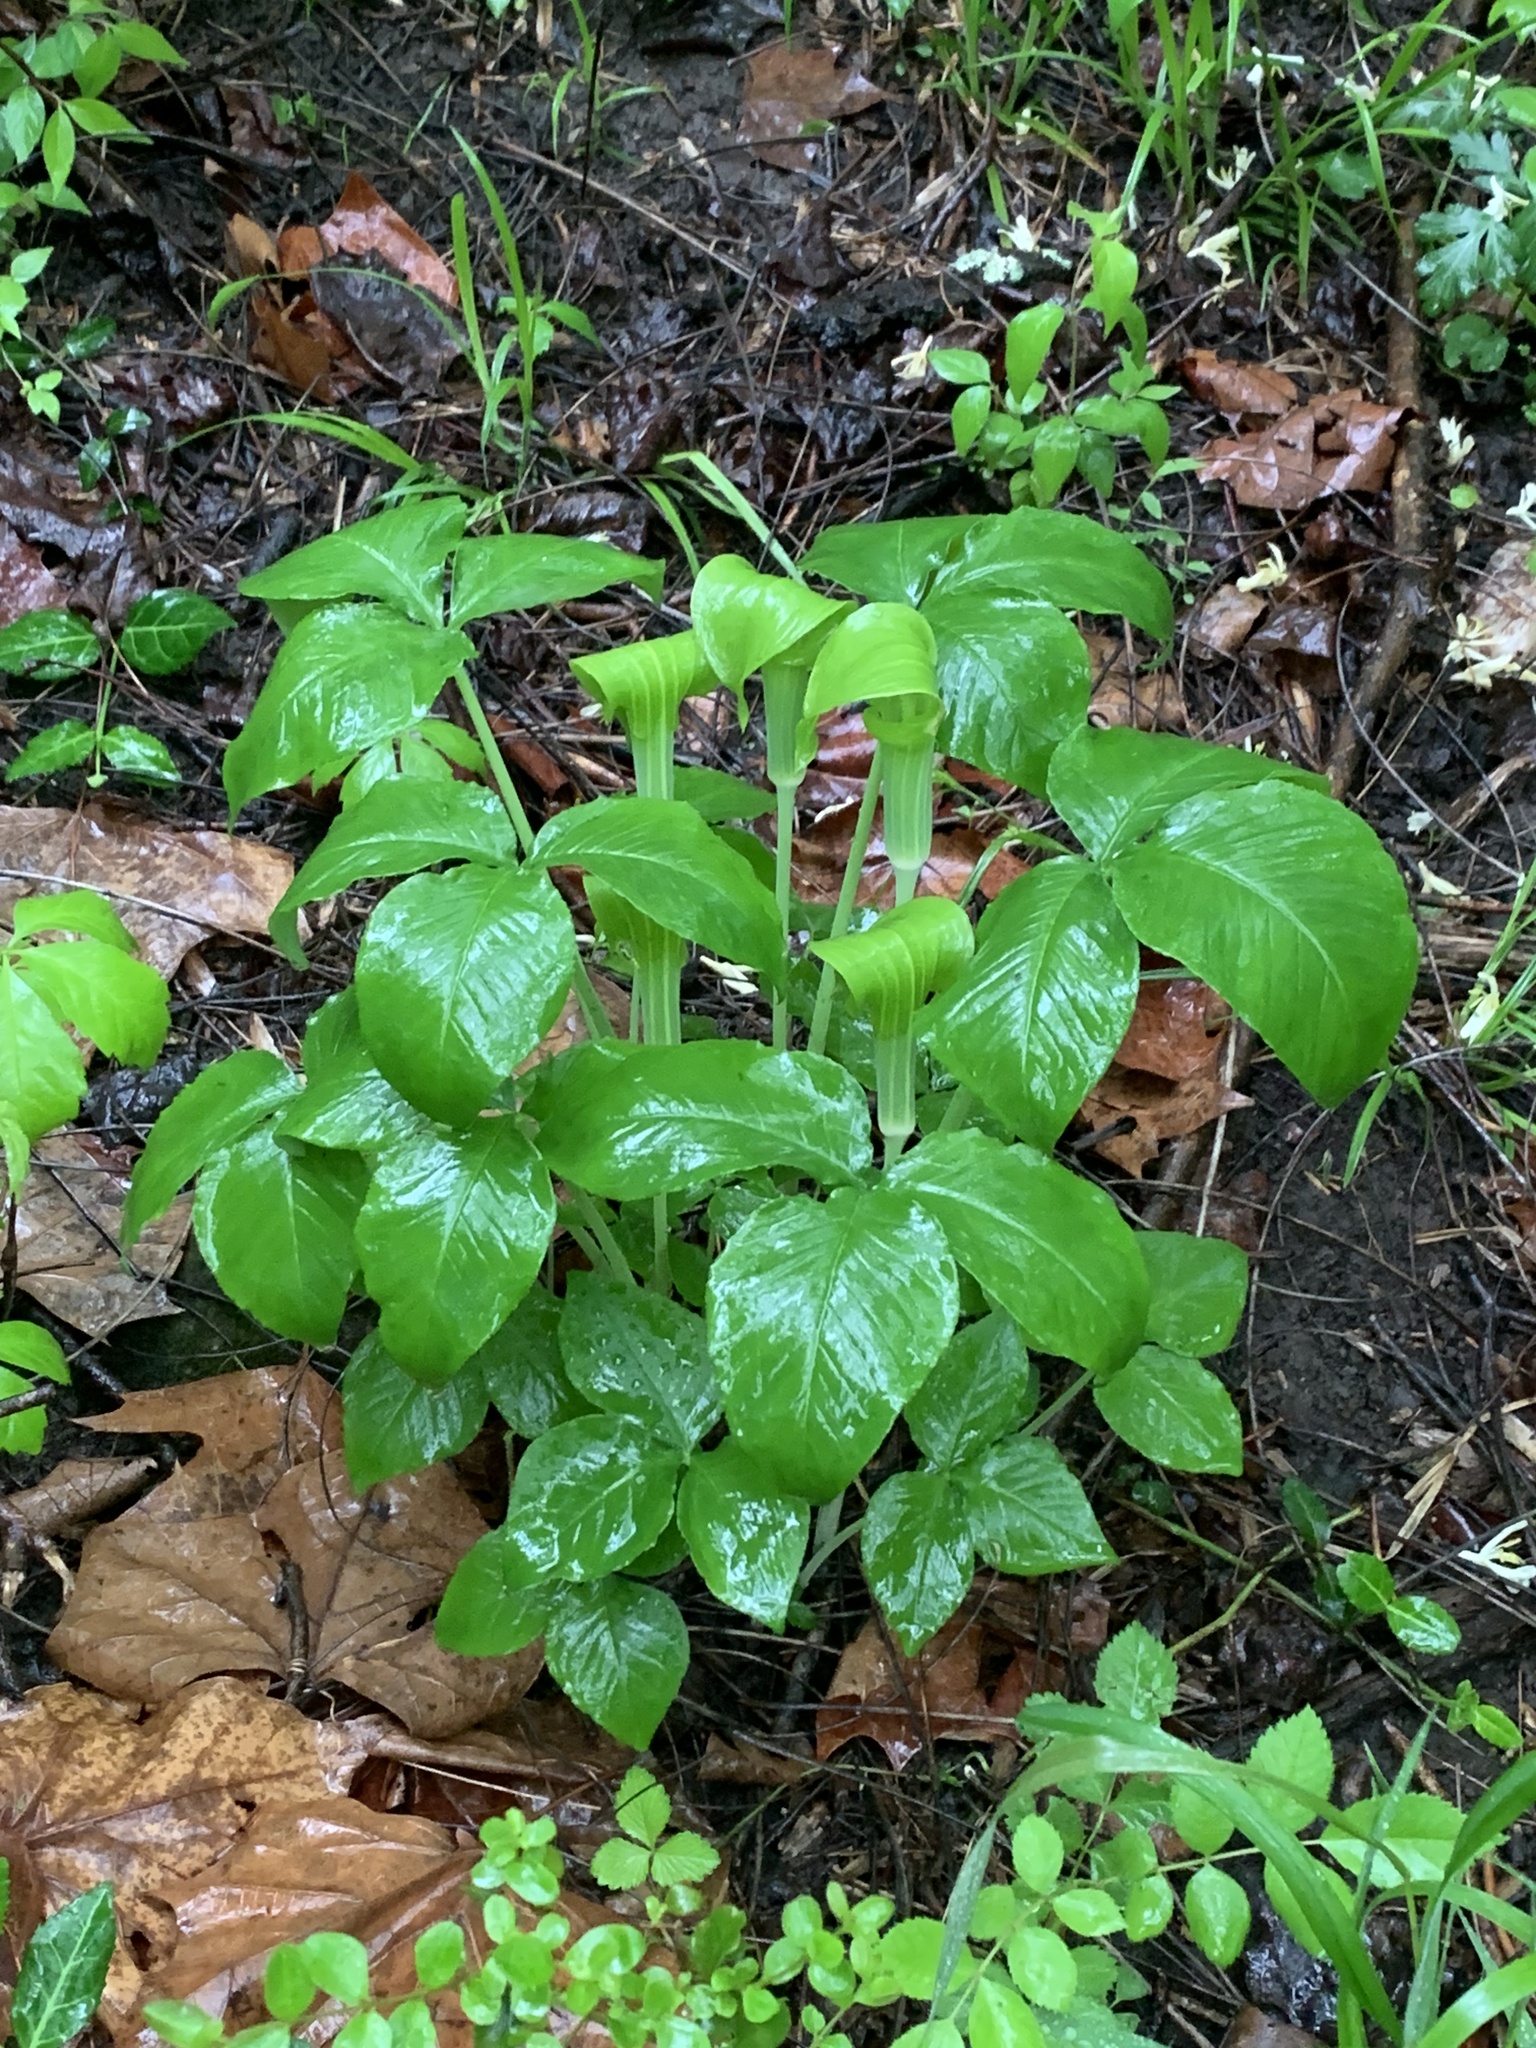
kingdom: Plantae
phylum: Tracheophyta
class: Liliopsida
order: Alismatales
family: Araceae
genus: Arisaema
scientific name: Arisaema triphyllum
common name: Jack-in-the-pulpit
